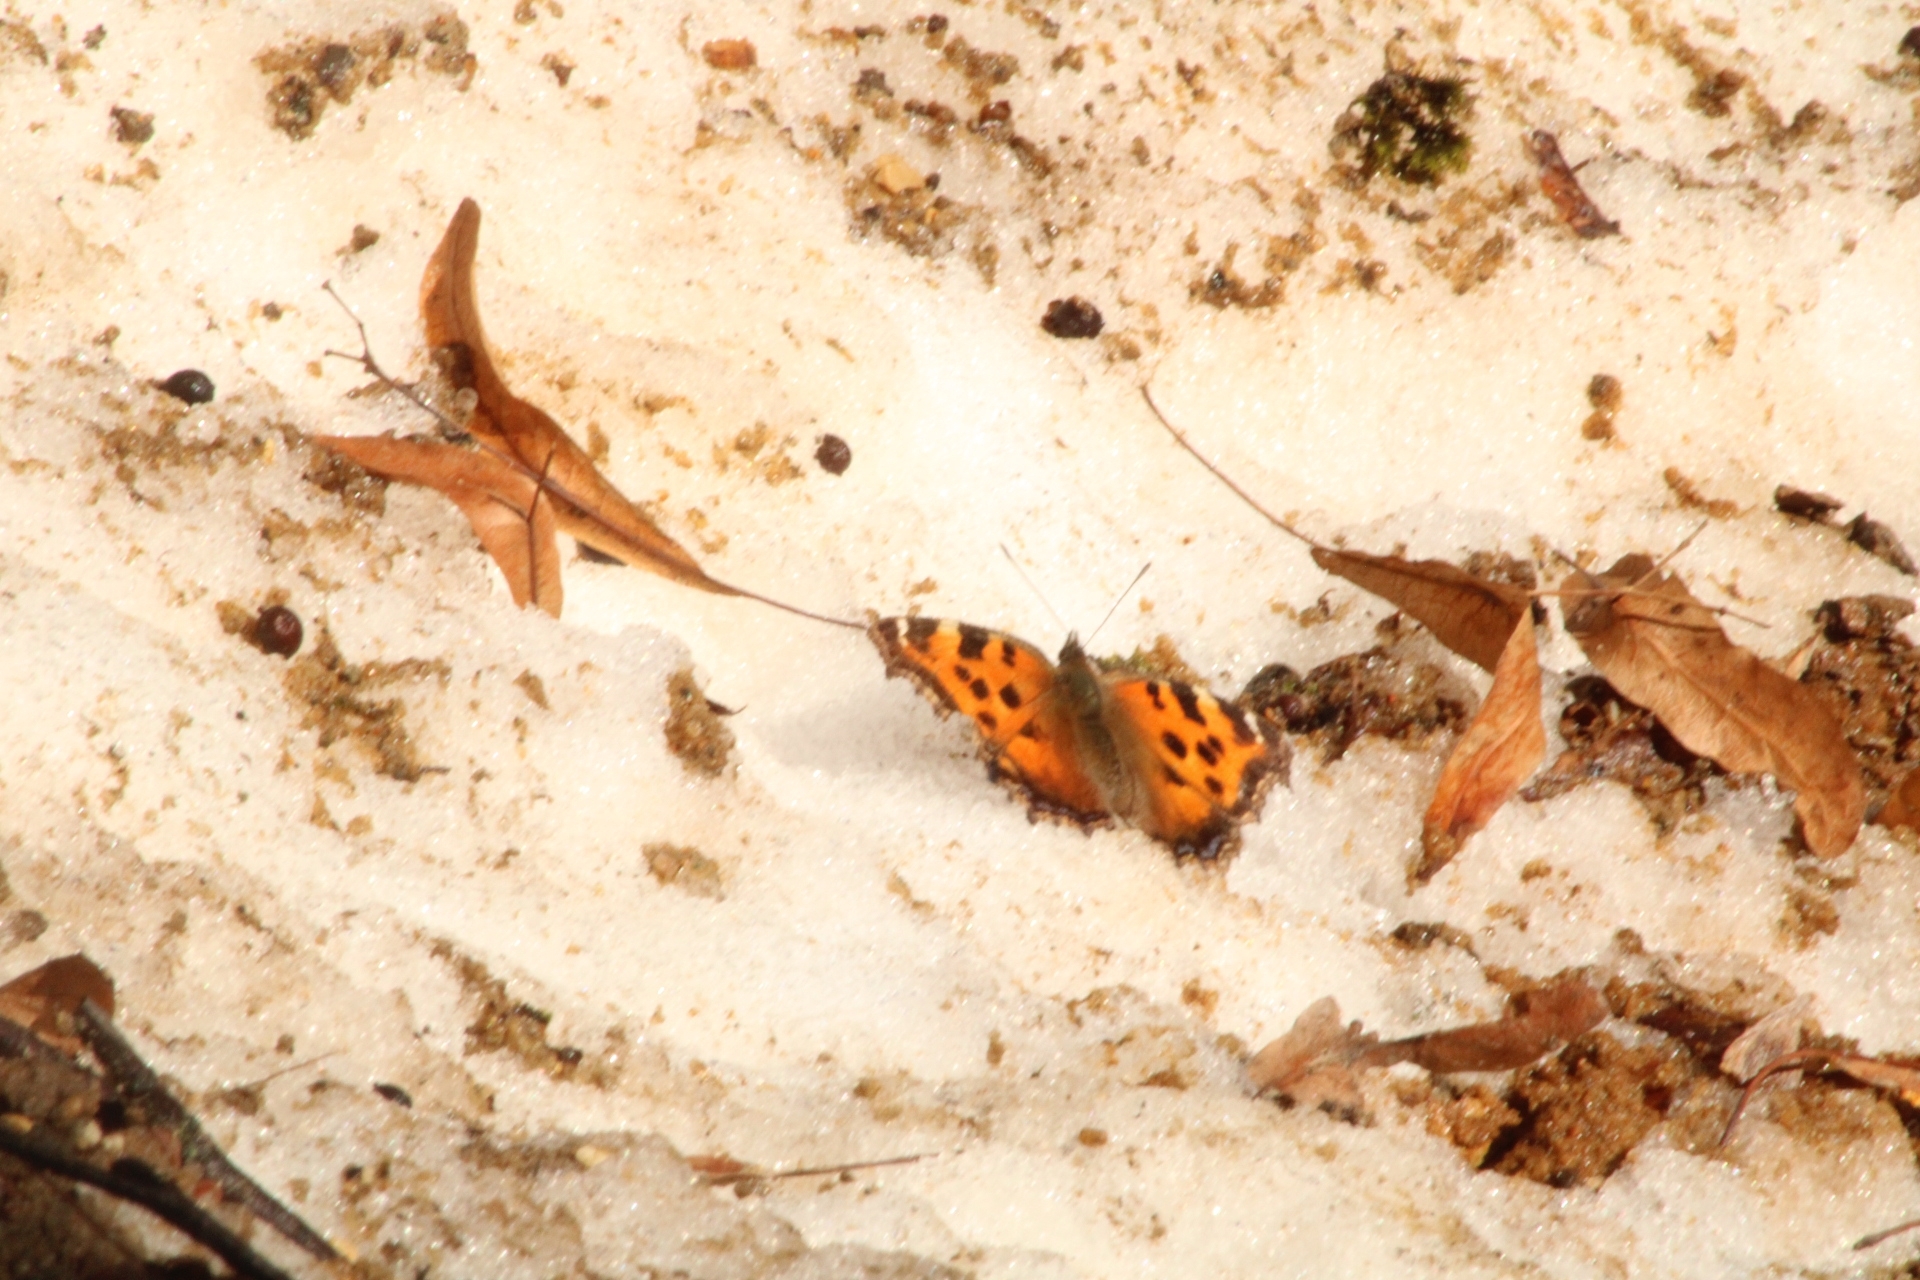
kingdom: Animalia
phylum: Arthropoda
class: Insecta
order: Lepidoptera
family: Nymphalidae
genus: Nymphalis
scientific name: Nymphalis xanthomelas
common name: Scarce tortoiseshell
